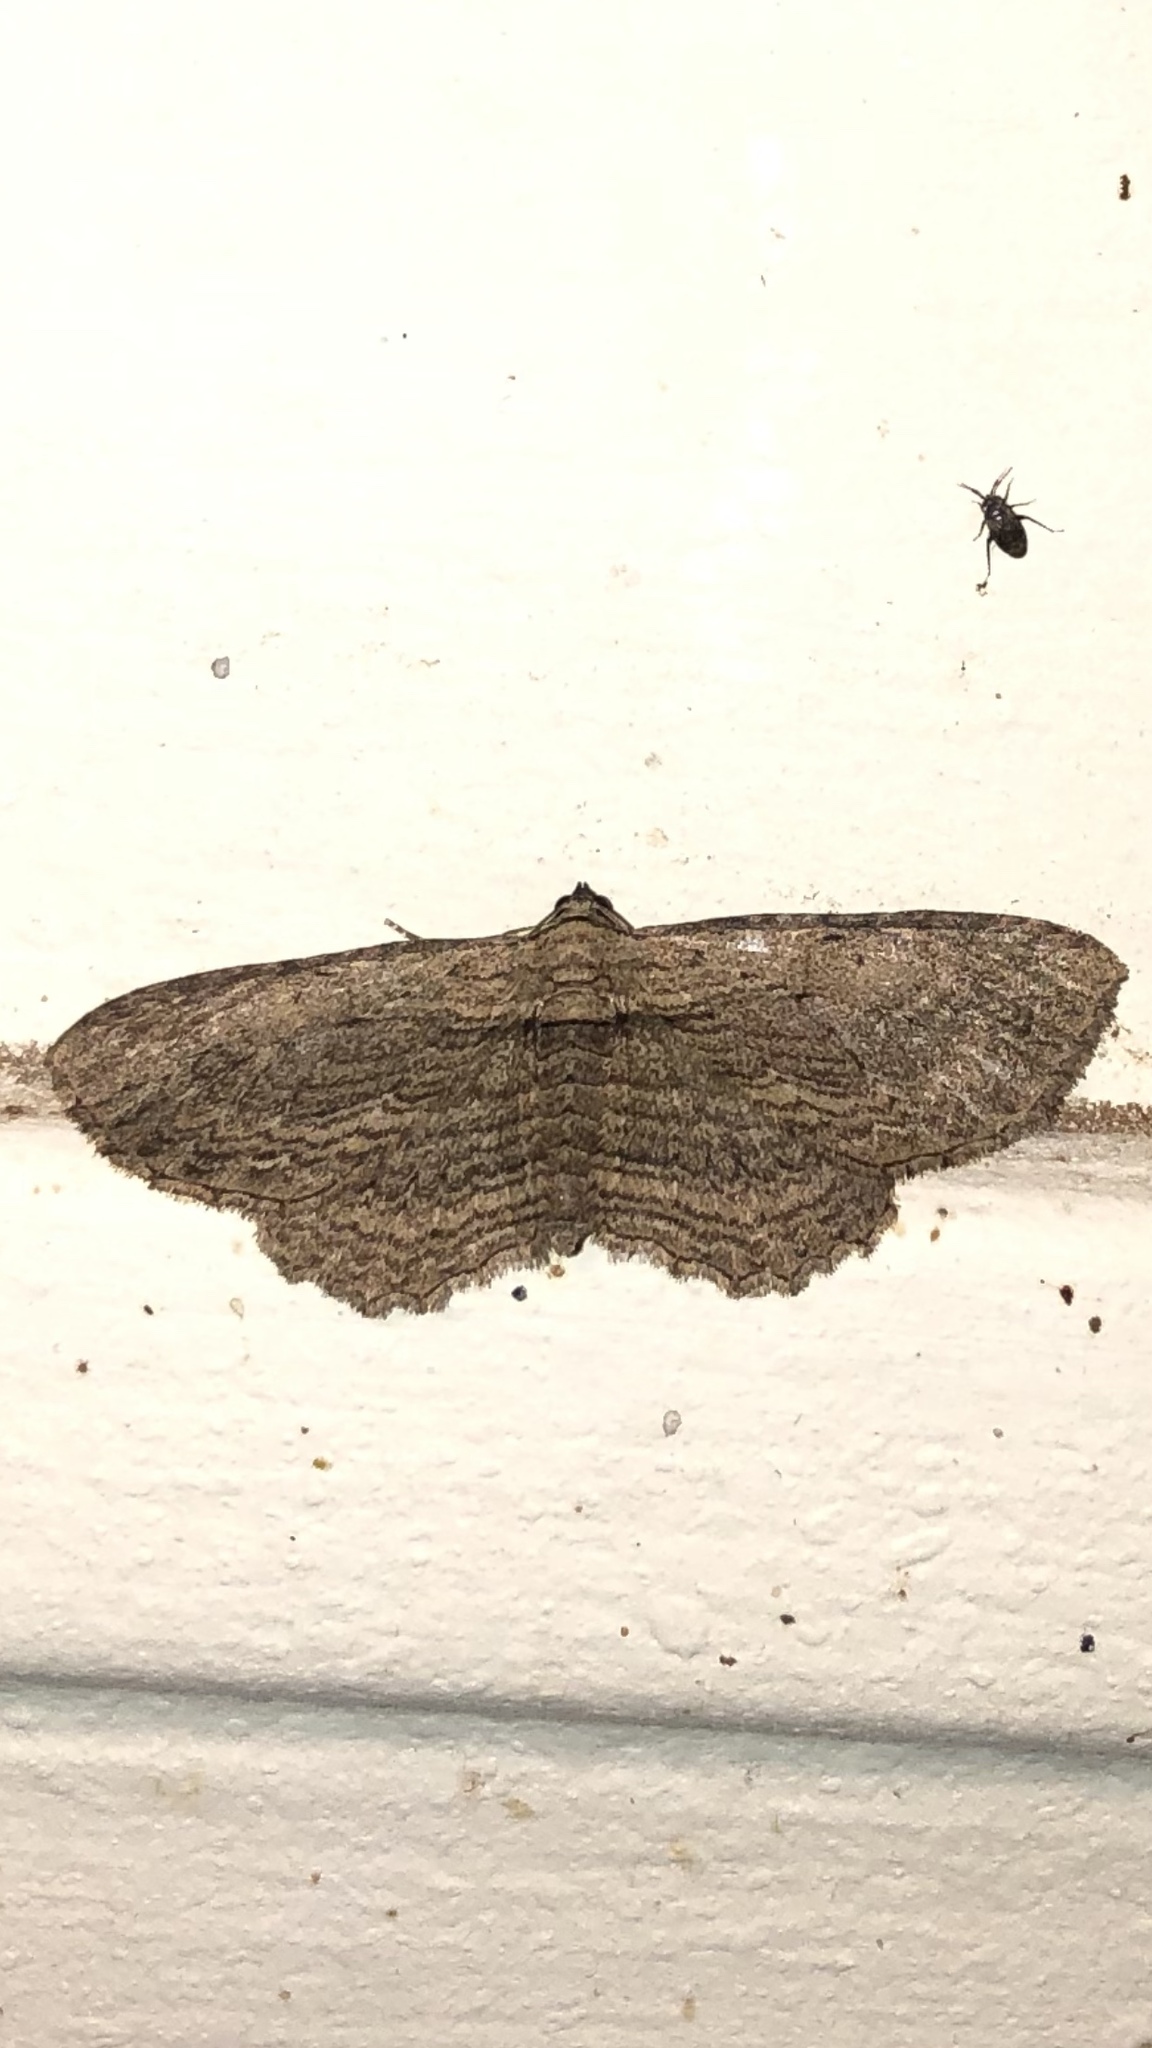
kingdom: Animalia
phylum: Arthropoda
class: Insecta
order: Lepidoptera
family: Geometridae
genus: Horisme
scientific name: Horisme intestinata
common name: Brown bark carpet
